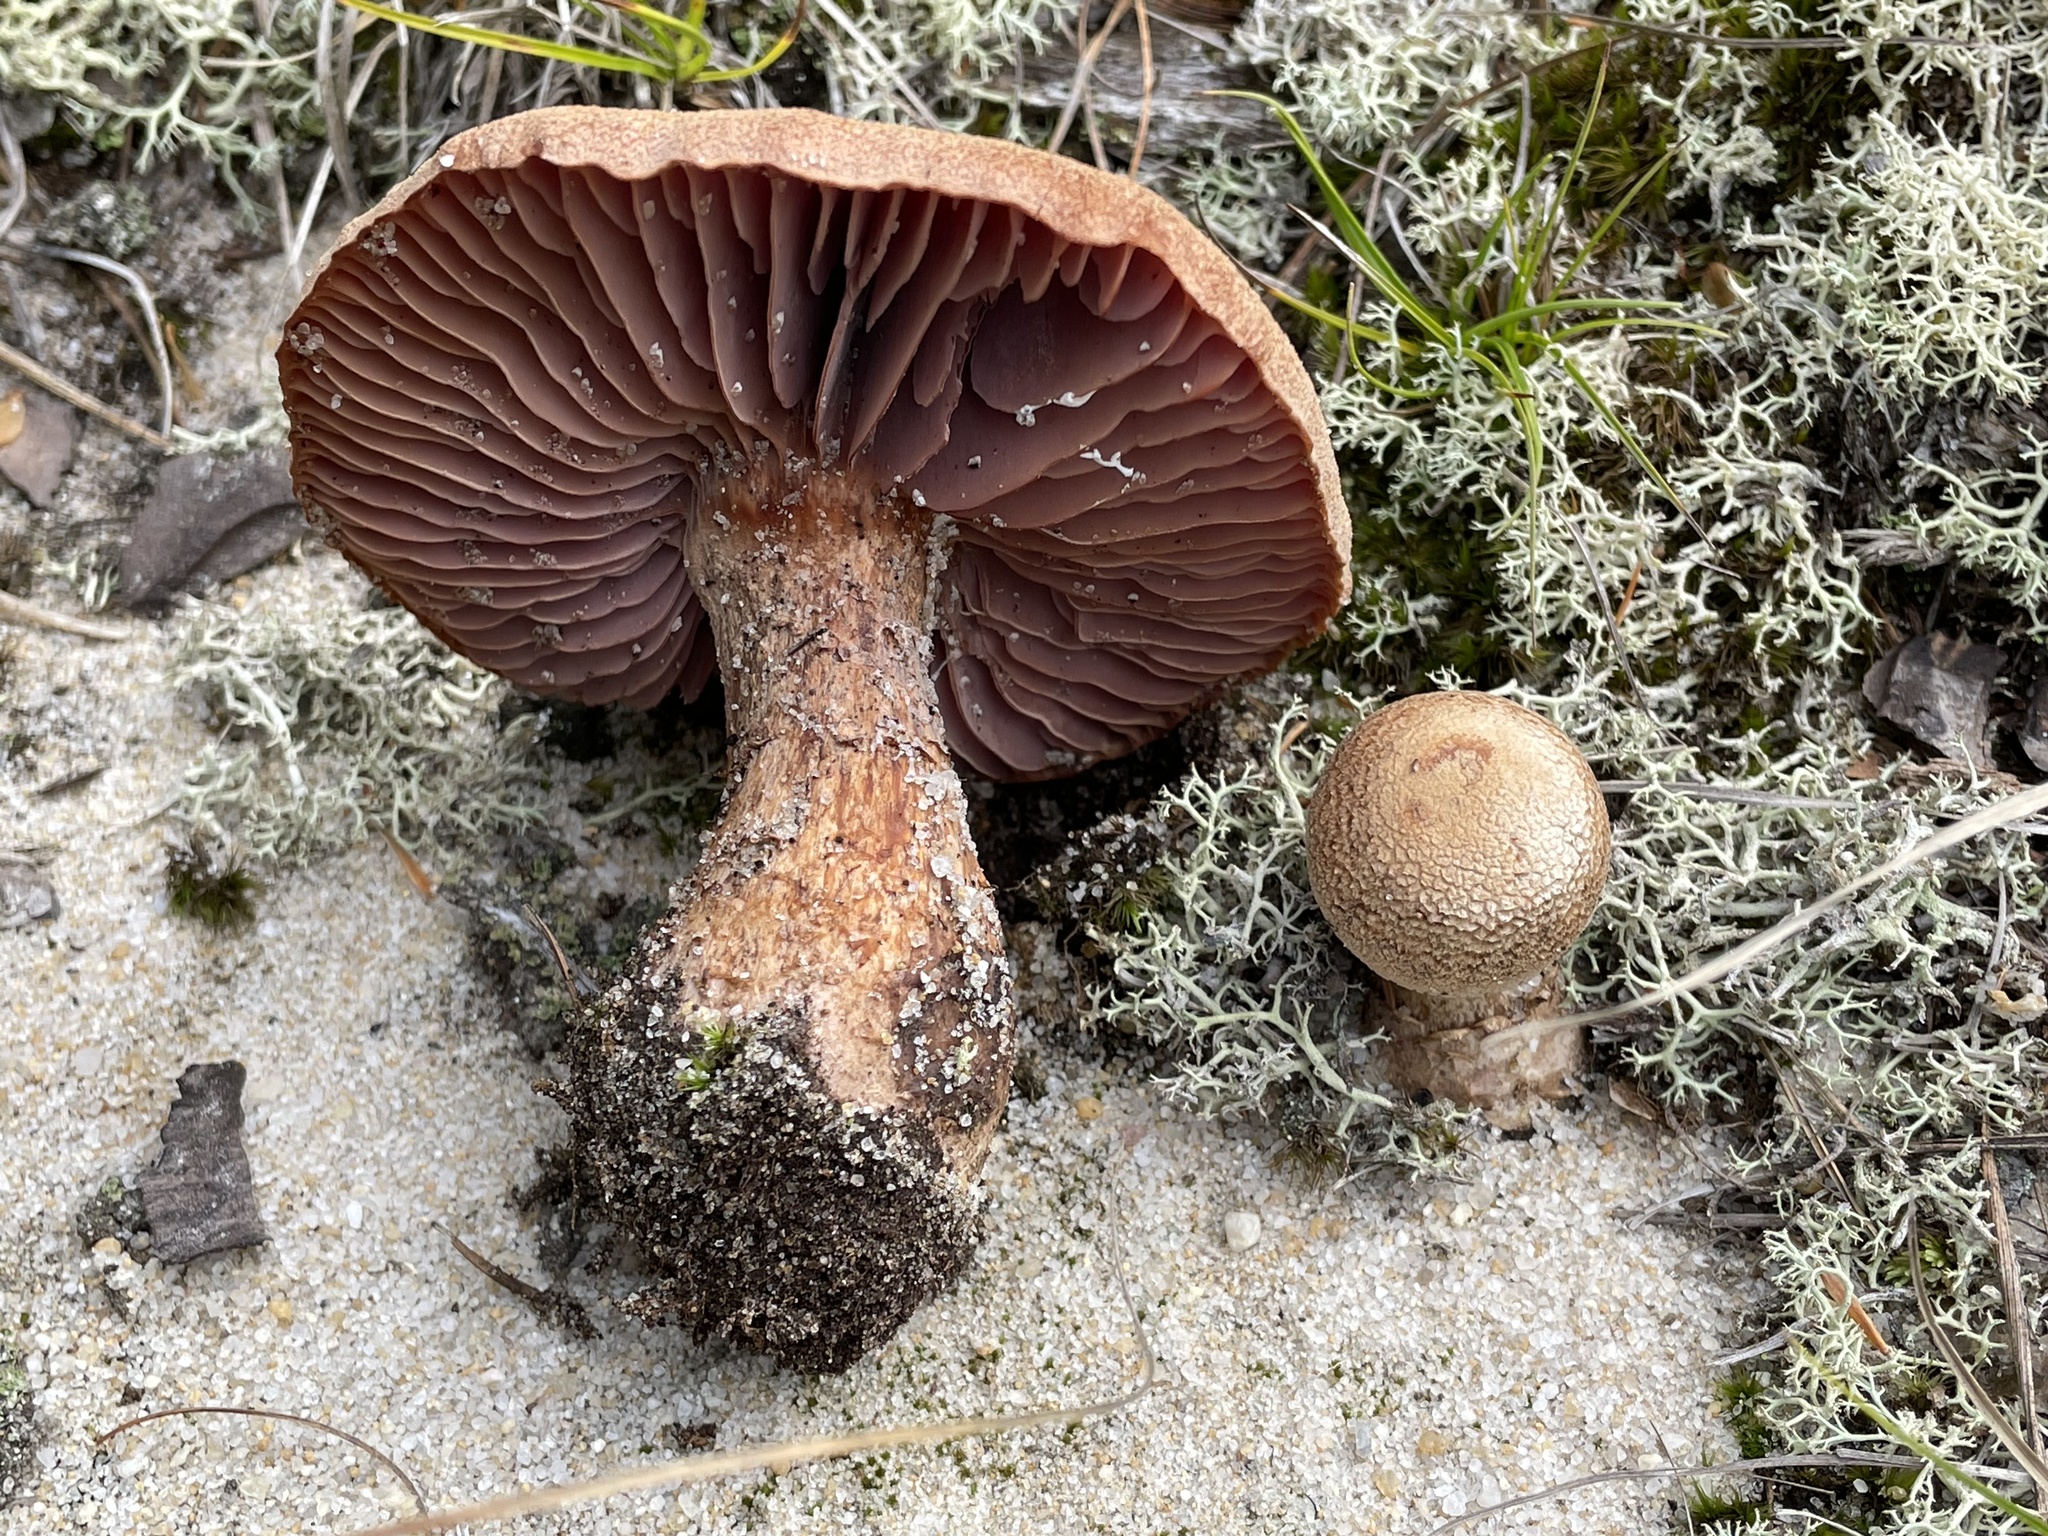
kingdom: Fungi
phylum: Basidiomycota
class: Agaricomycetes
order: Agaricales
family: Hydnangiaceae
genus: Laccaria
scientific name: Laccaria trullissata
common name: Sandy laccaria
